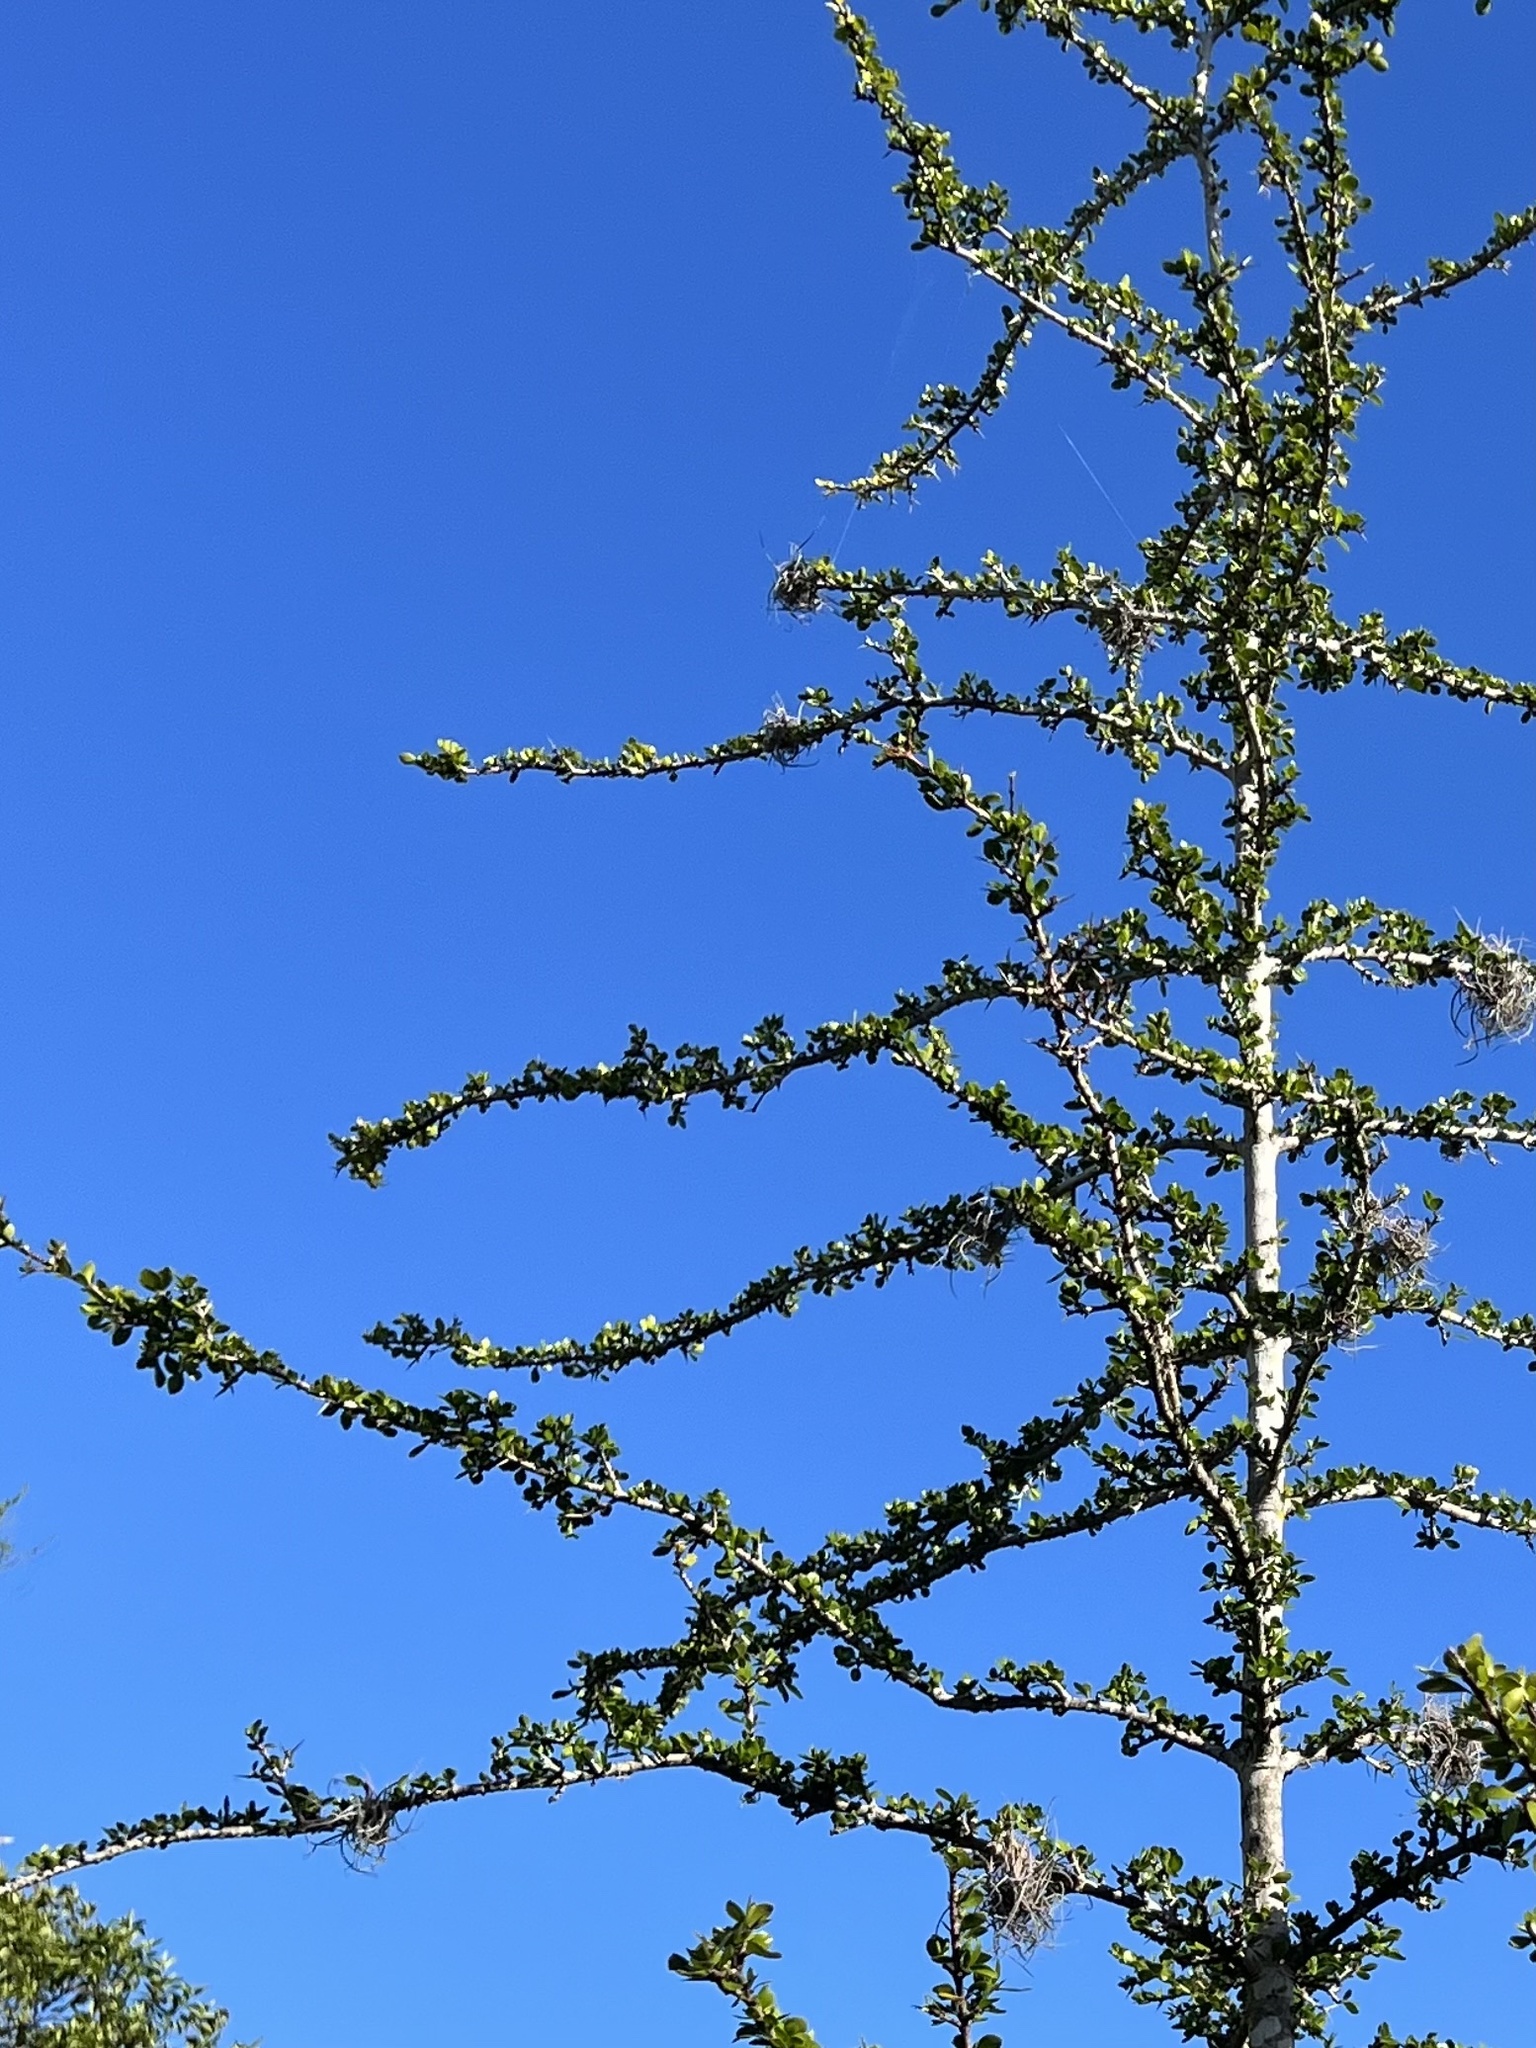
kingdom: Plantae
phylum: Tracheophyta
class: Magnoliopsida
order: Gentianales
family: Rubiaceae
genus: Randia
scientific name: Randia aculeata
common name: Inkberry
